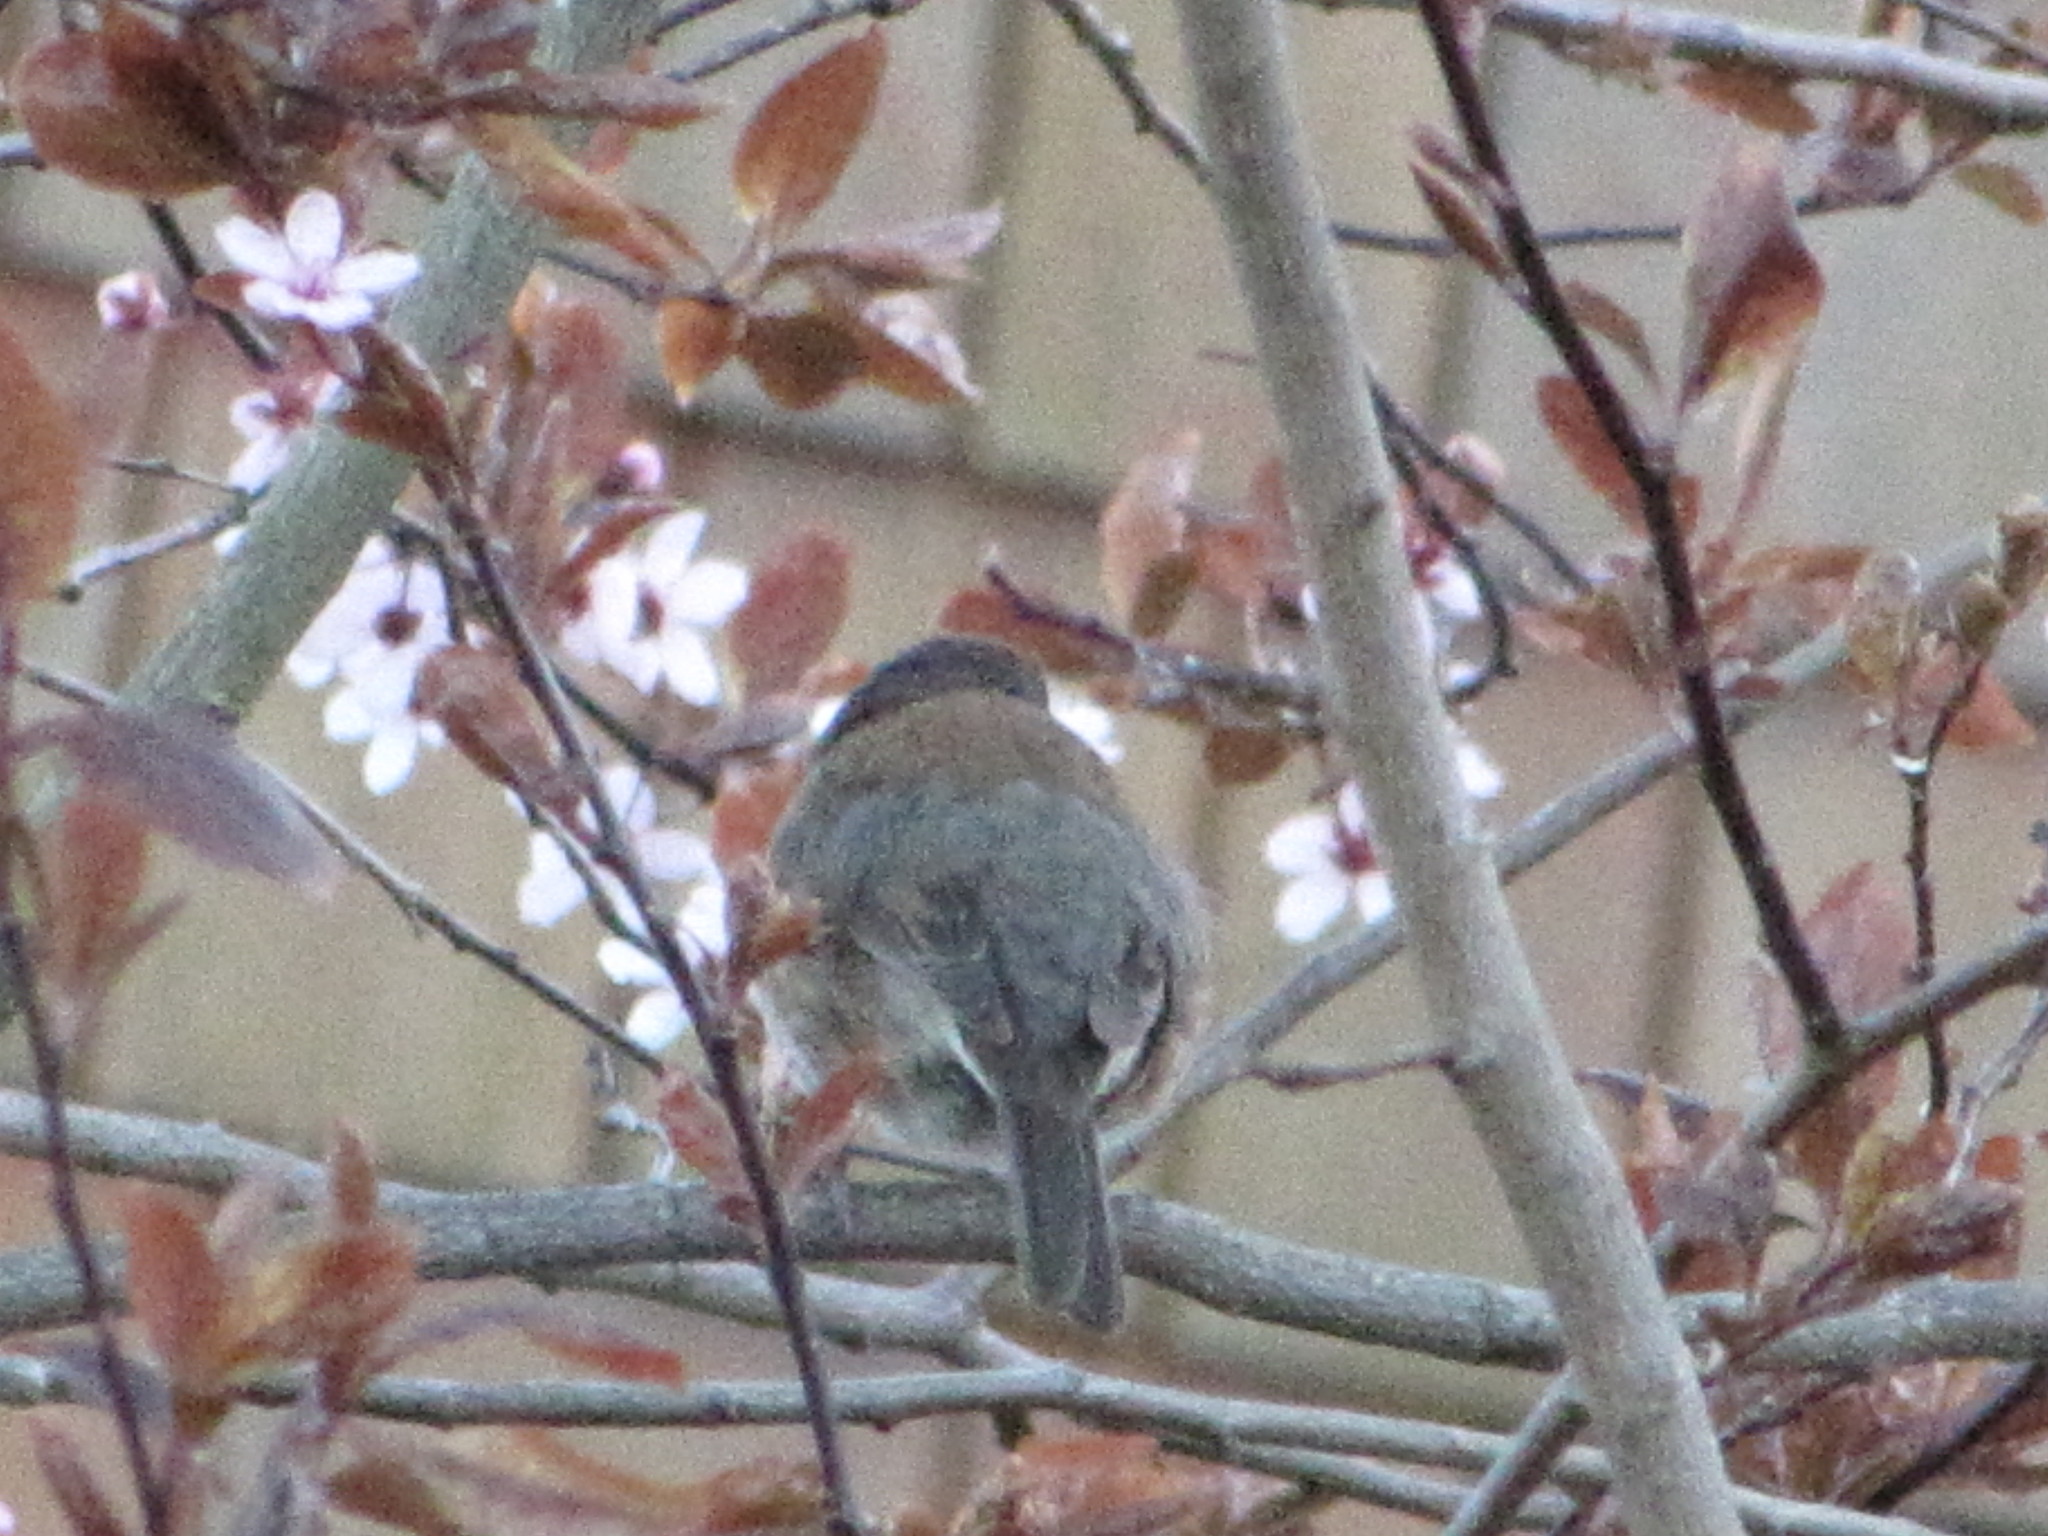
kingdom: Animalia
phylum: Chordata
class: Aves
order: Passeriformes
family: Passerellidae
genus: Junco
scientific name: Junco hyemalis
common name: Dark-eyed junco
